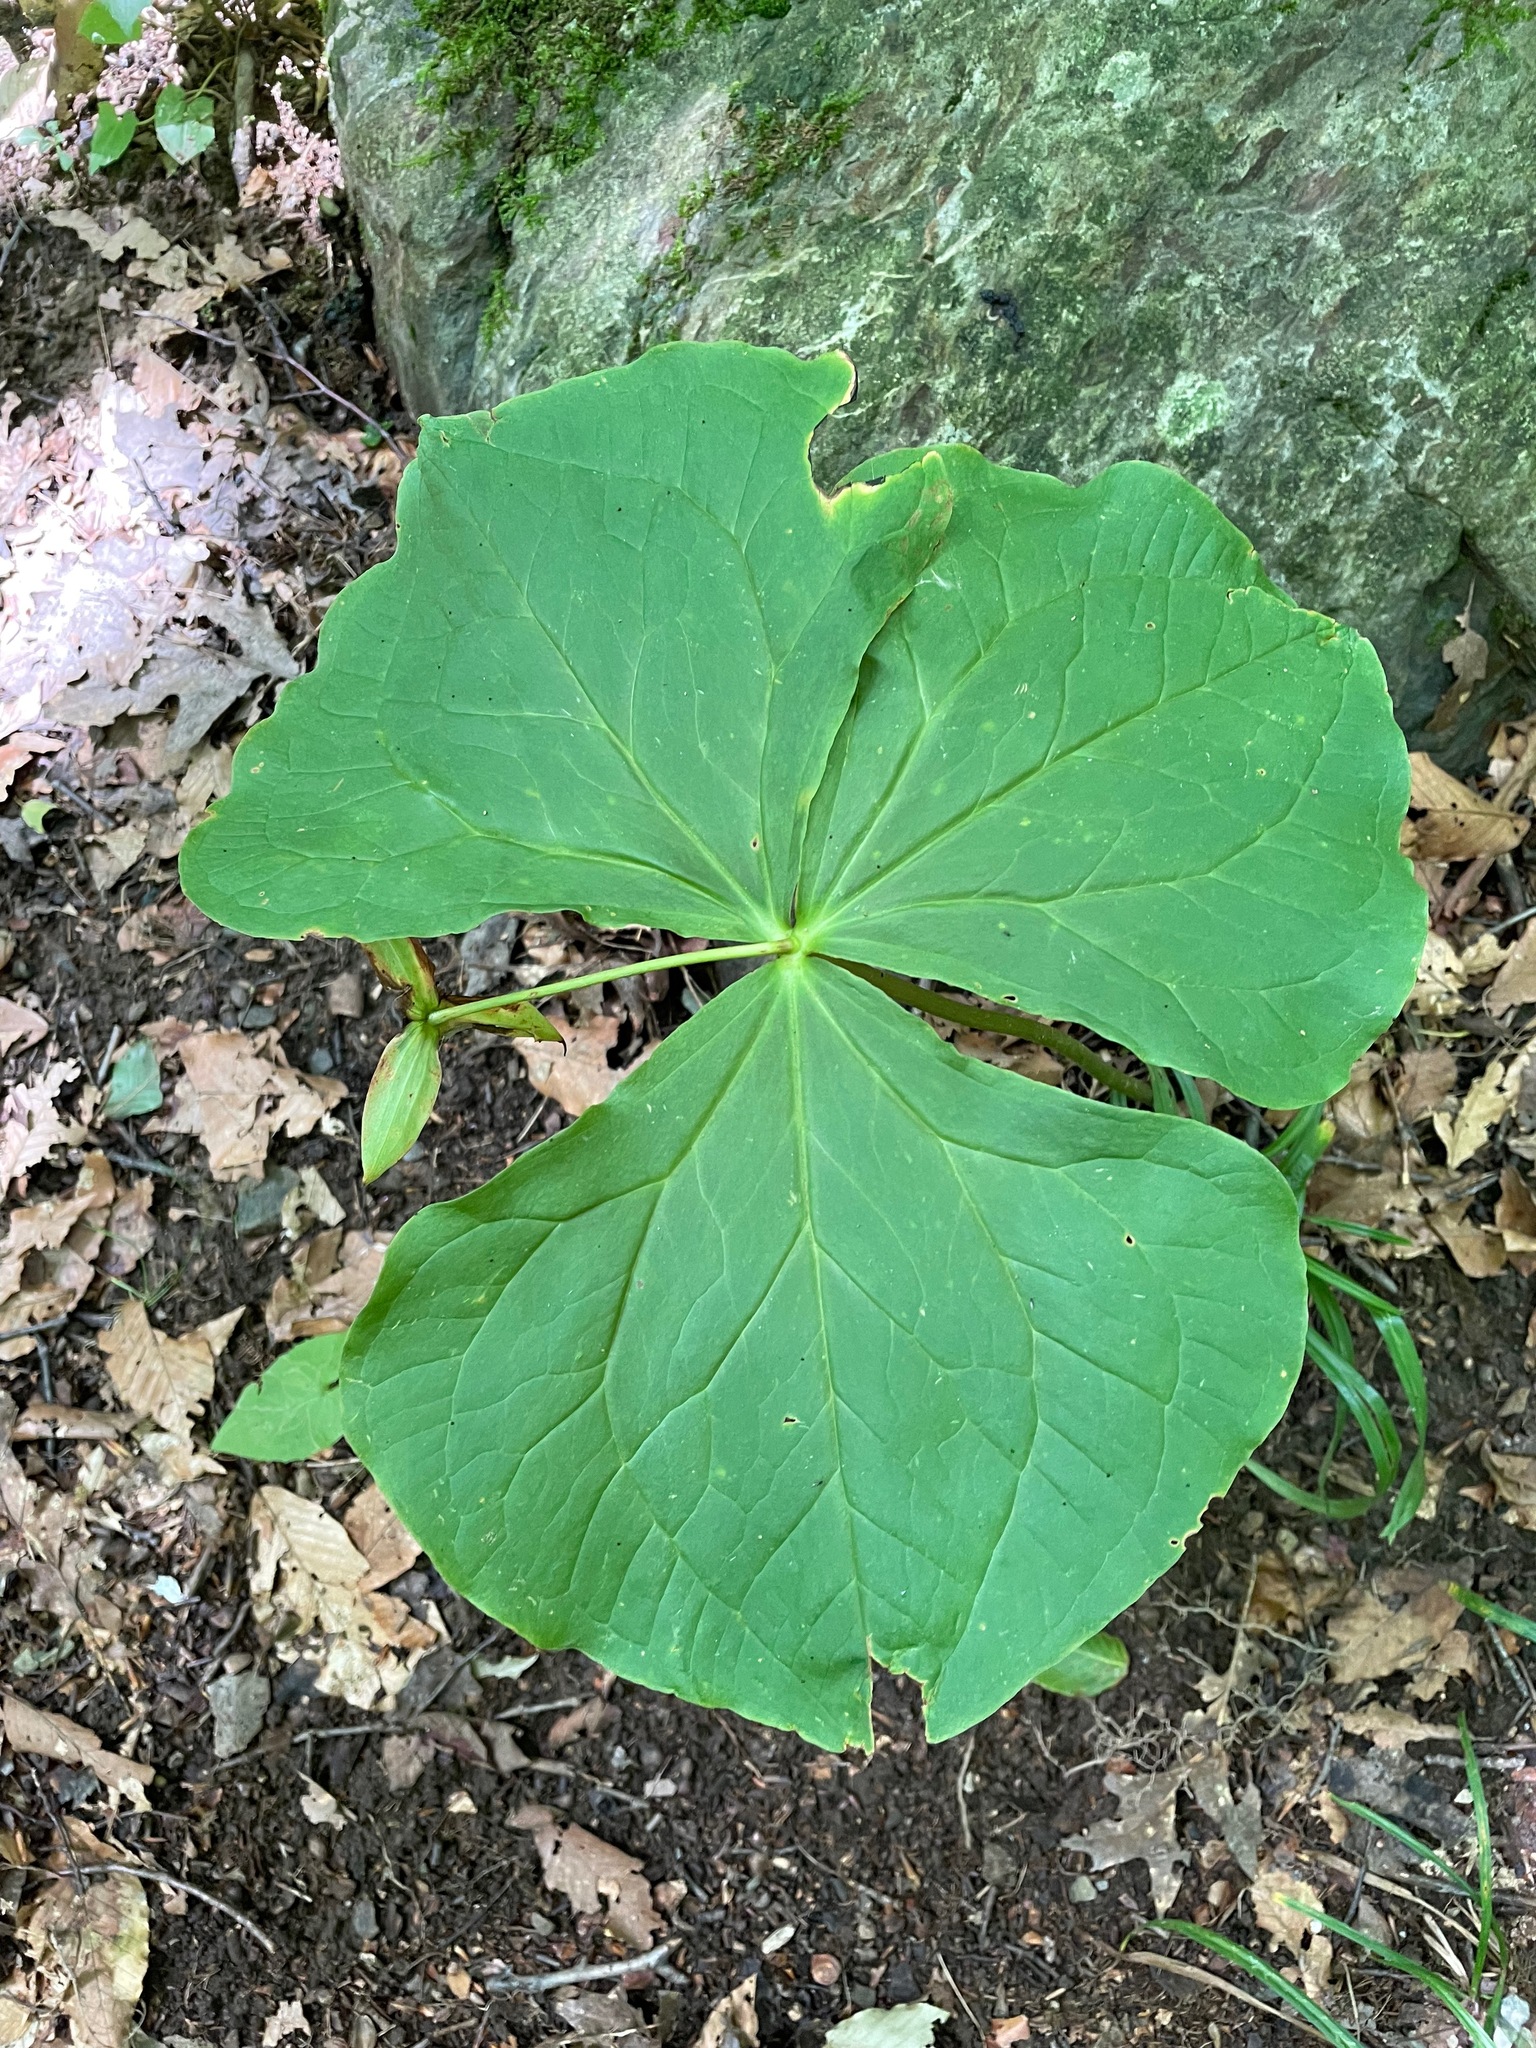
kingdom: Plantae
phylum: Tracheophyta
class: Liliopsida
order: Liliales
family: Melanthiaceae
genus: Trillium
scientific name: Trillium erectum
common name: Purple trillium
